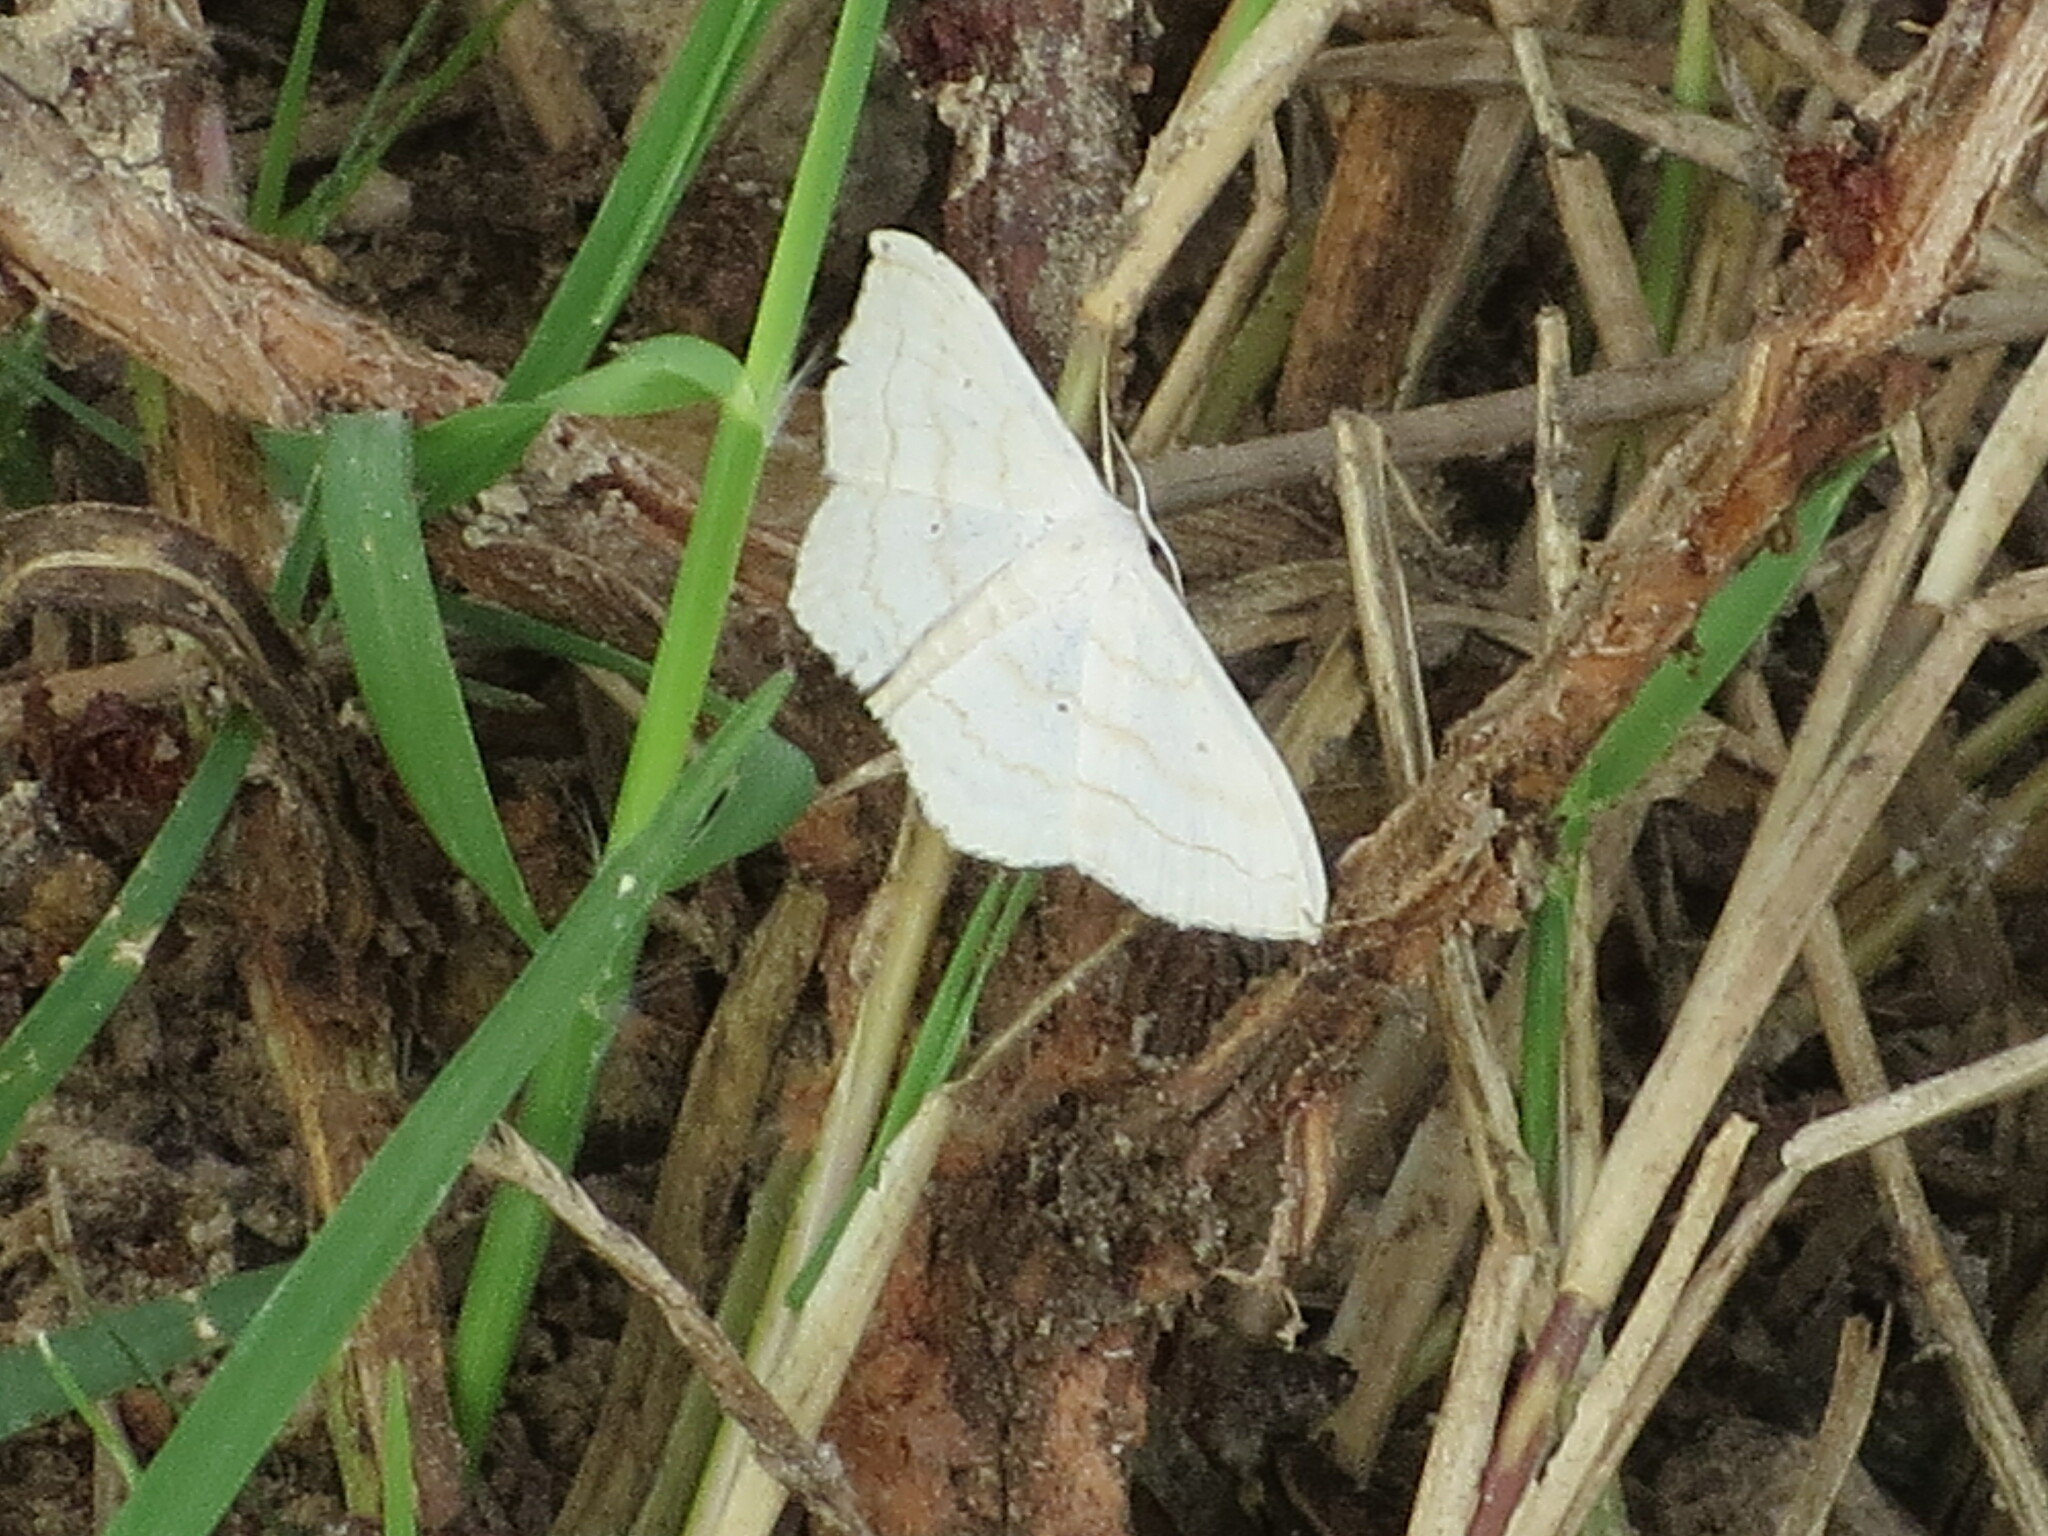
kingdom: Animalia
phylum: Arthropoda
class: Insecta
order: Lepidoptera
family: Geometridae
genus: Scopula
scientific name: Scopula umbilicata
